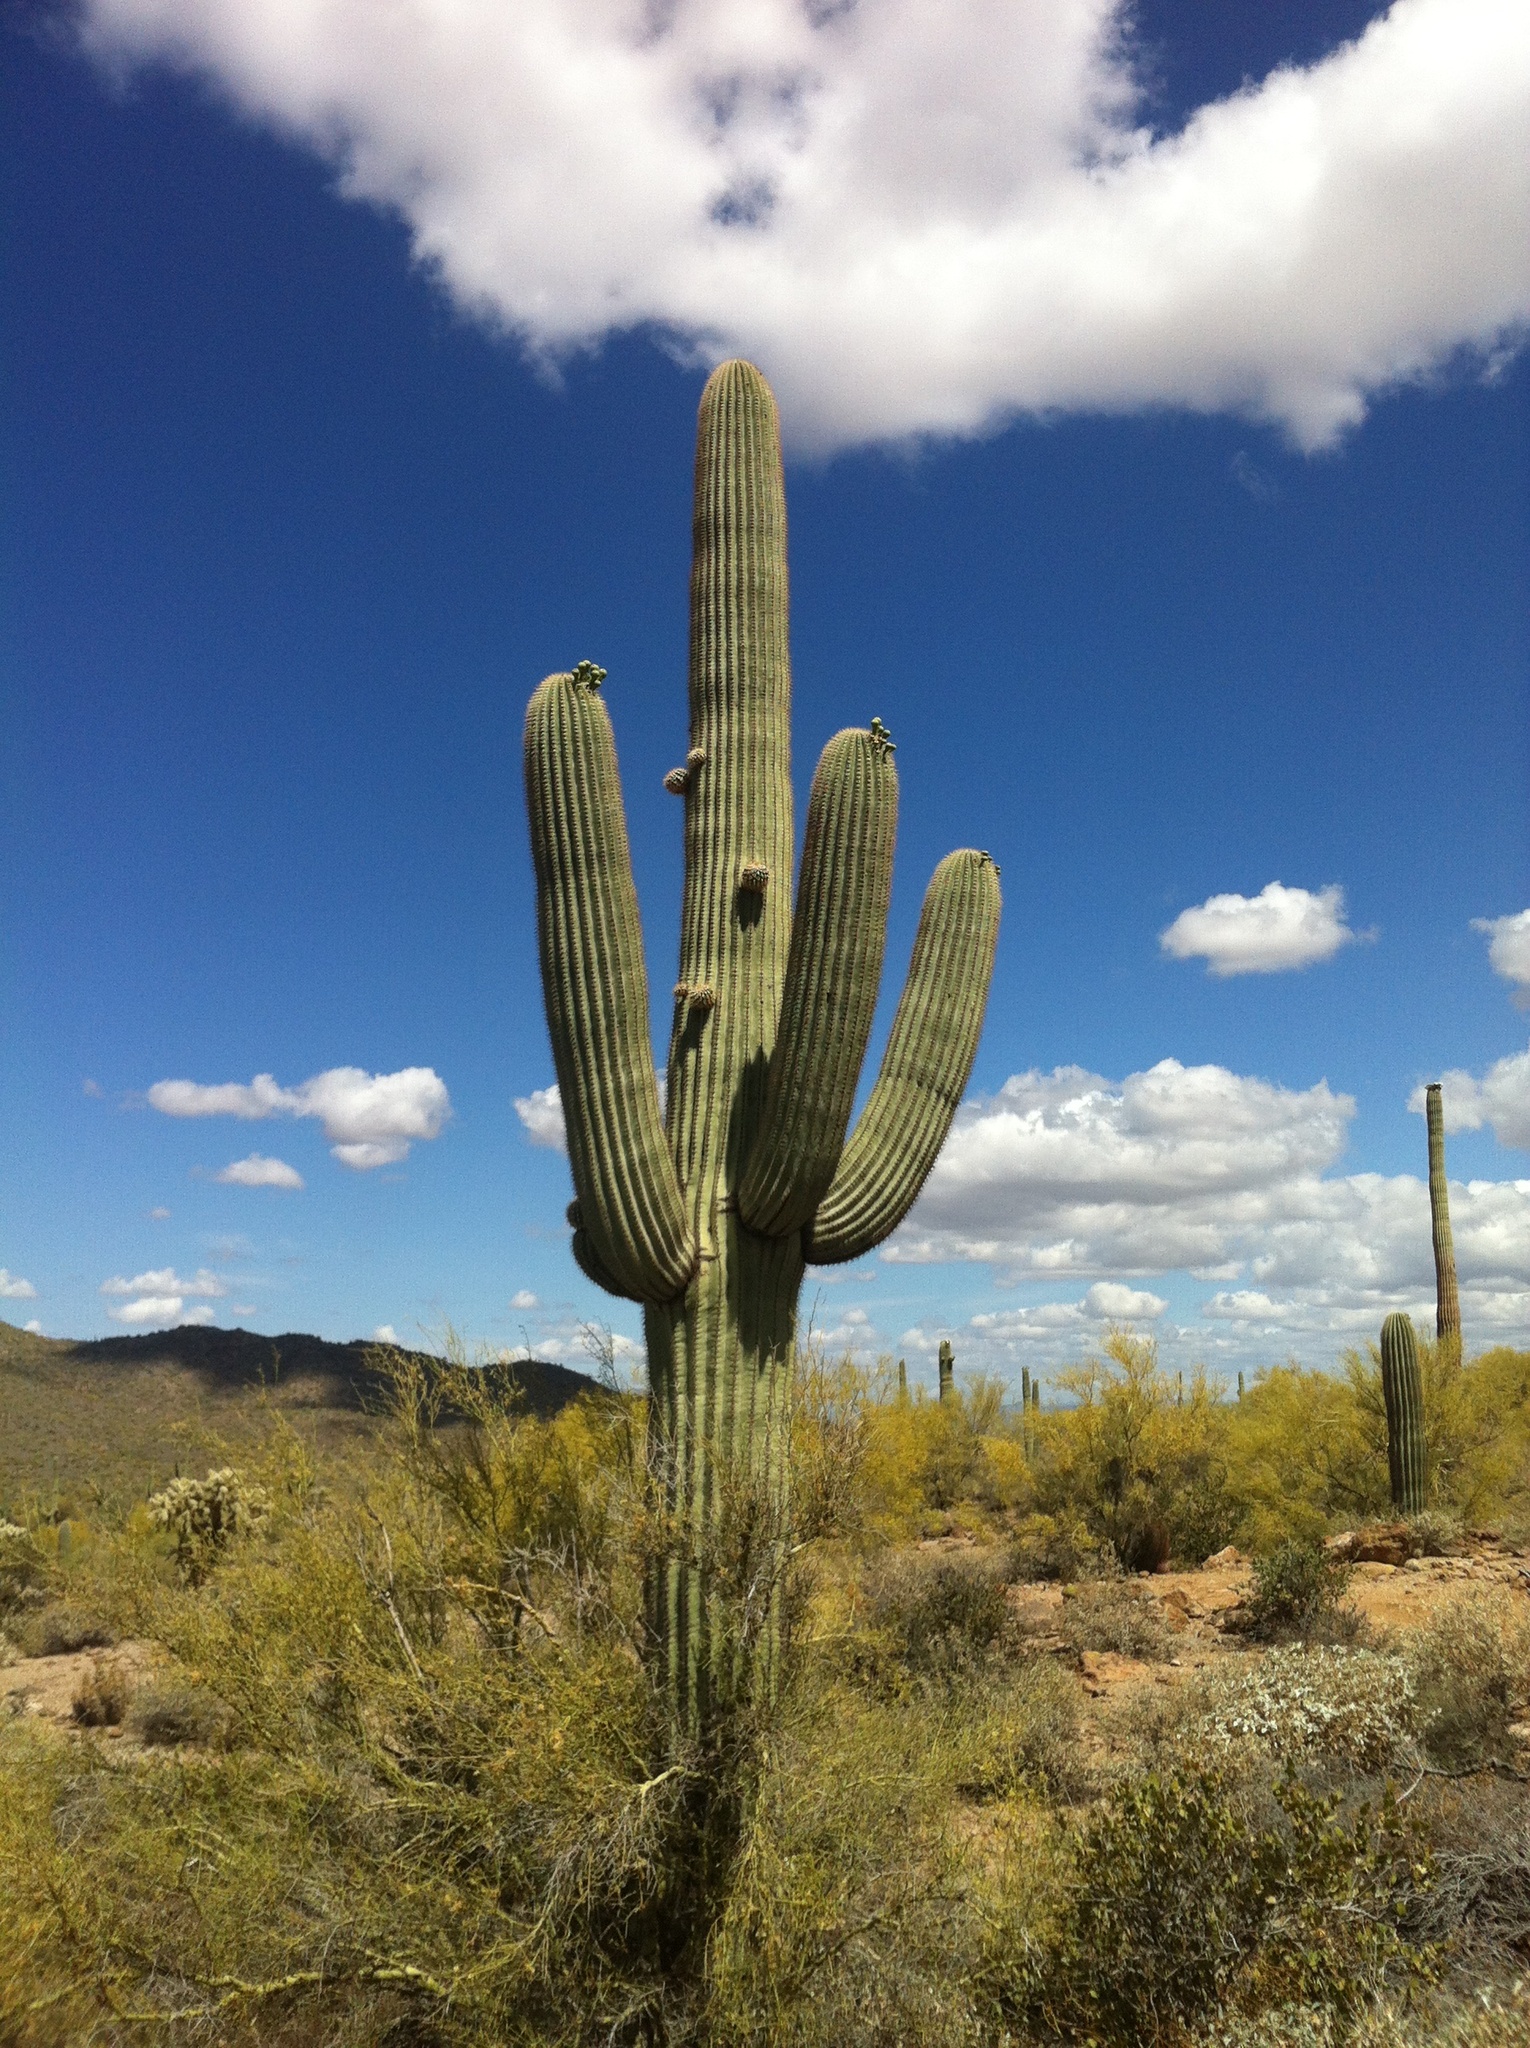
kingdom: Plantae
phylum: Tracheophyta
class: Magnoliopsida
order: Caryophyllales
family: Cactaceae
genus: Carnegiea
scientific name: Carnegiea gigantea
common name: Saguaro
